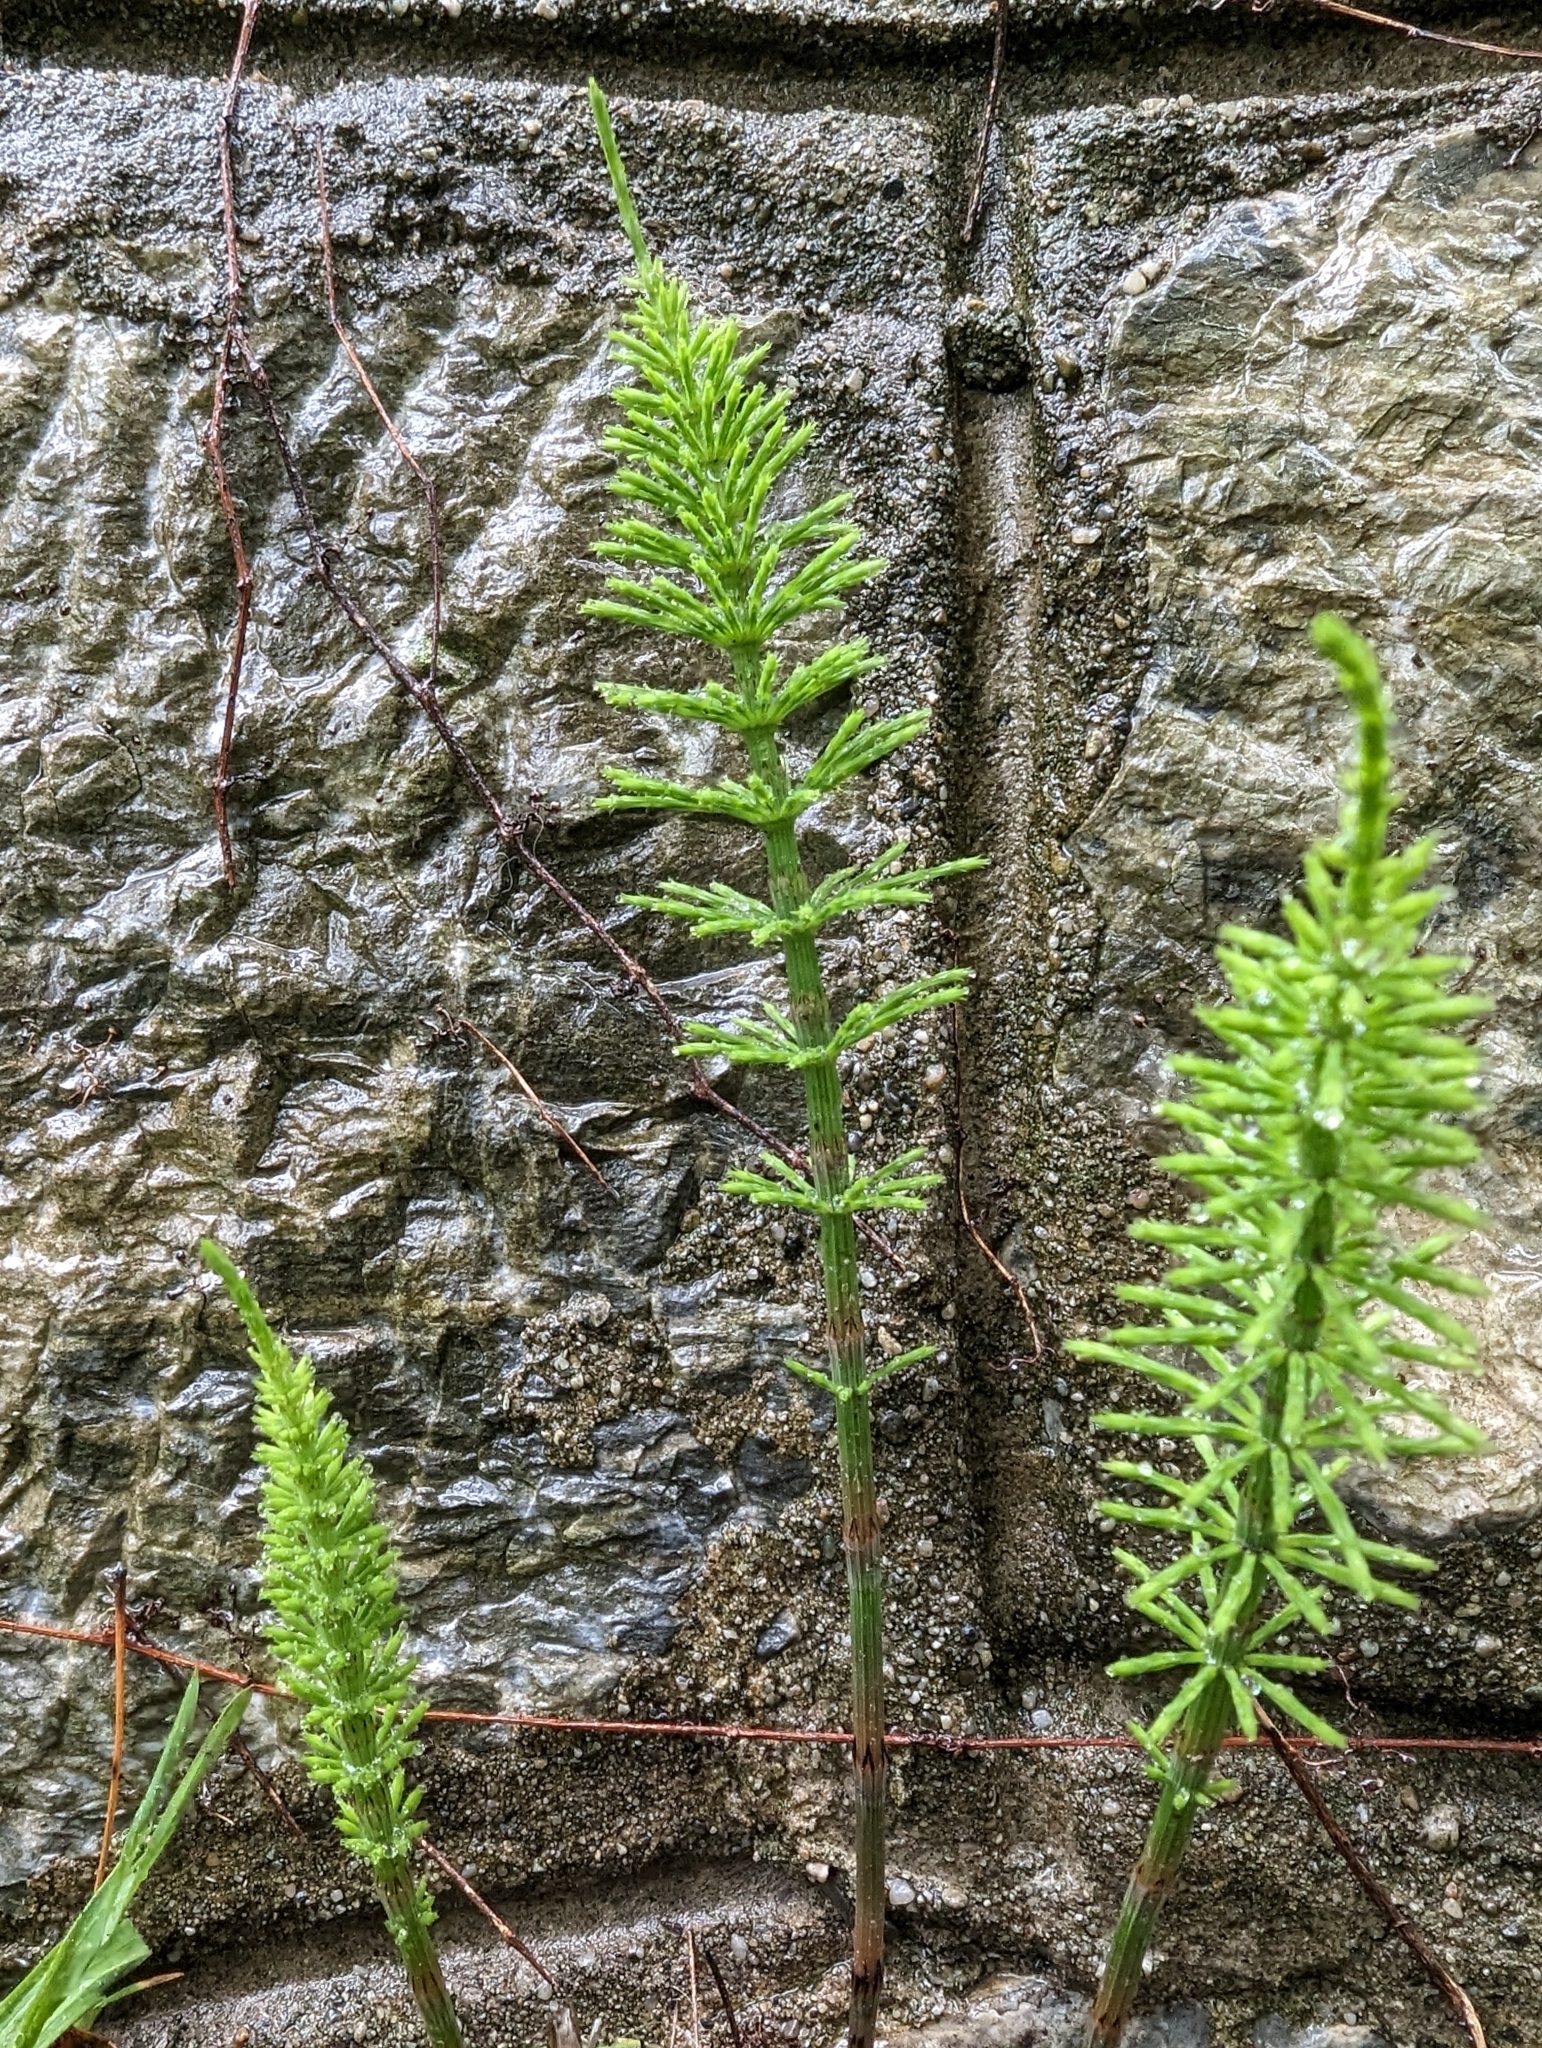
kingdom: Plantae
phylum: Tracheophyta
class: Polypodiopsida
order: Equisetales
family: Equisetaceae
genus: Equisetum
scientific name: Equisetum arvense
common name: Field horsetail
